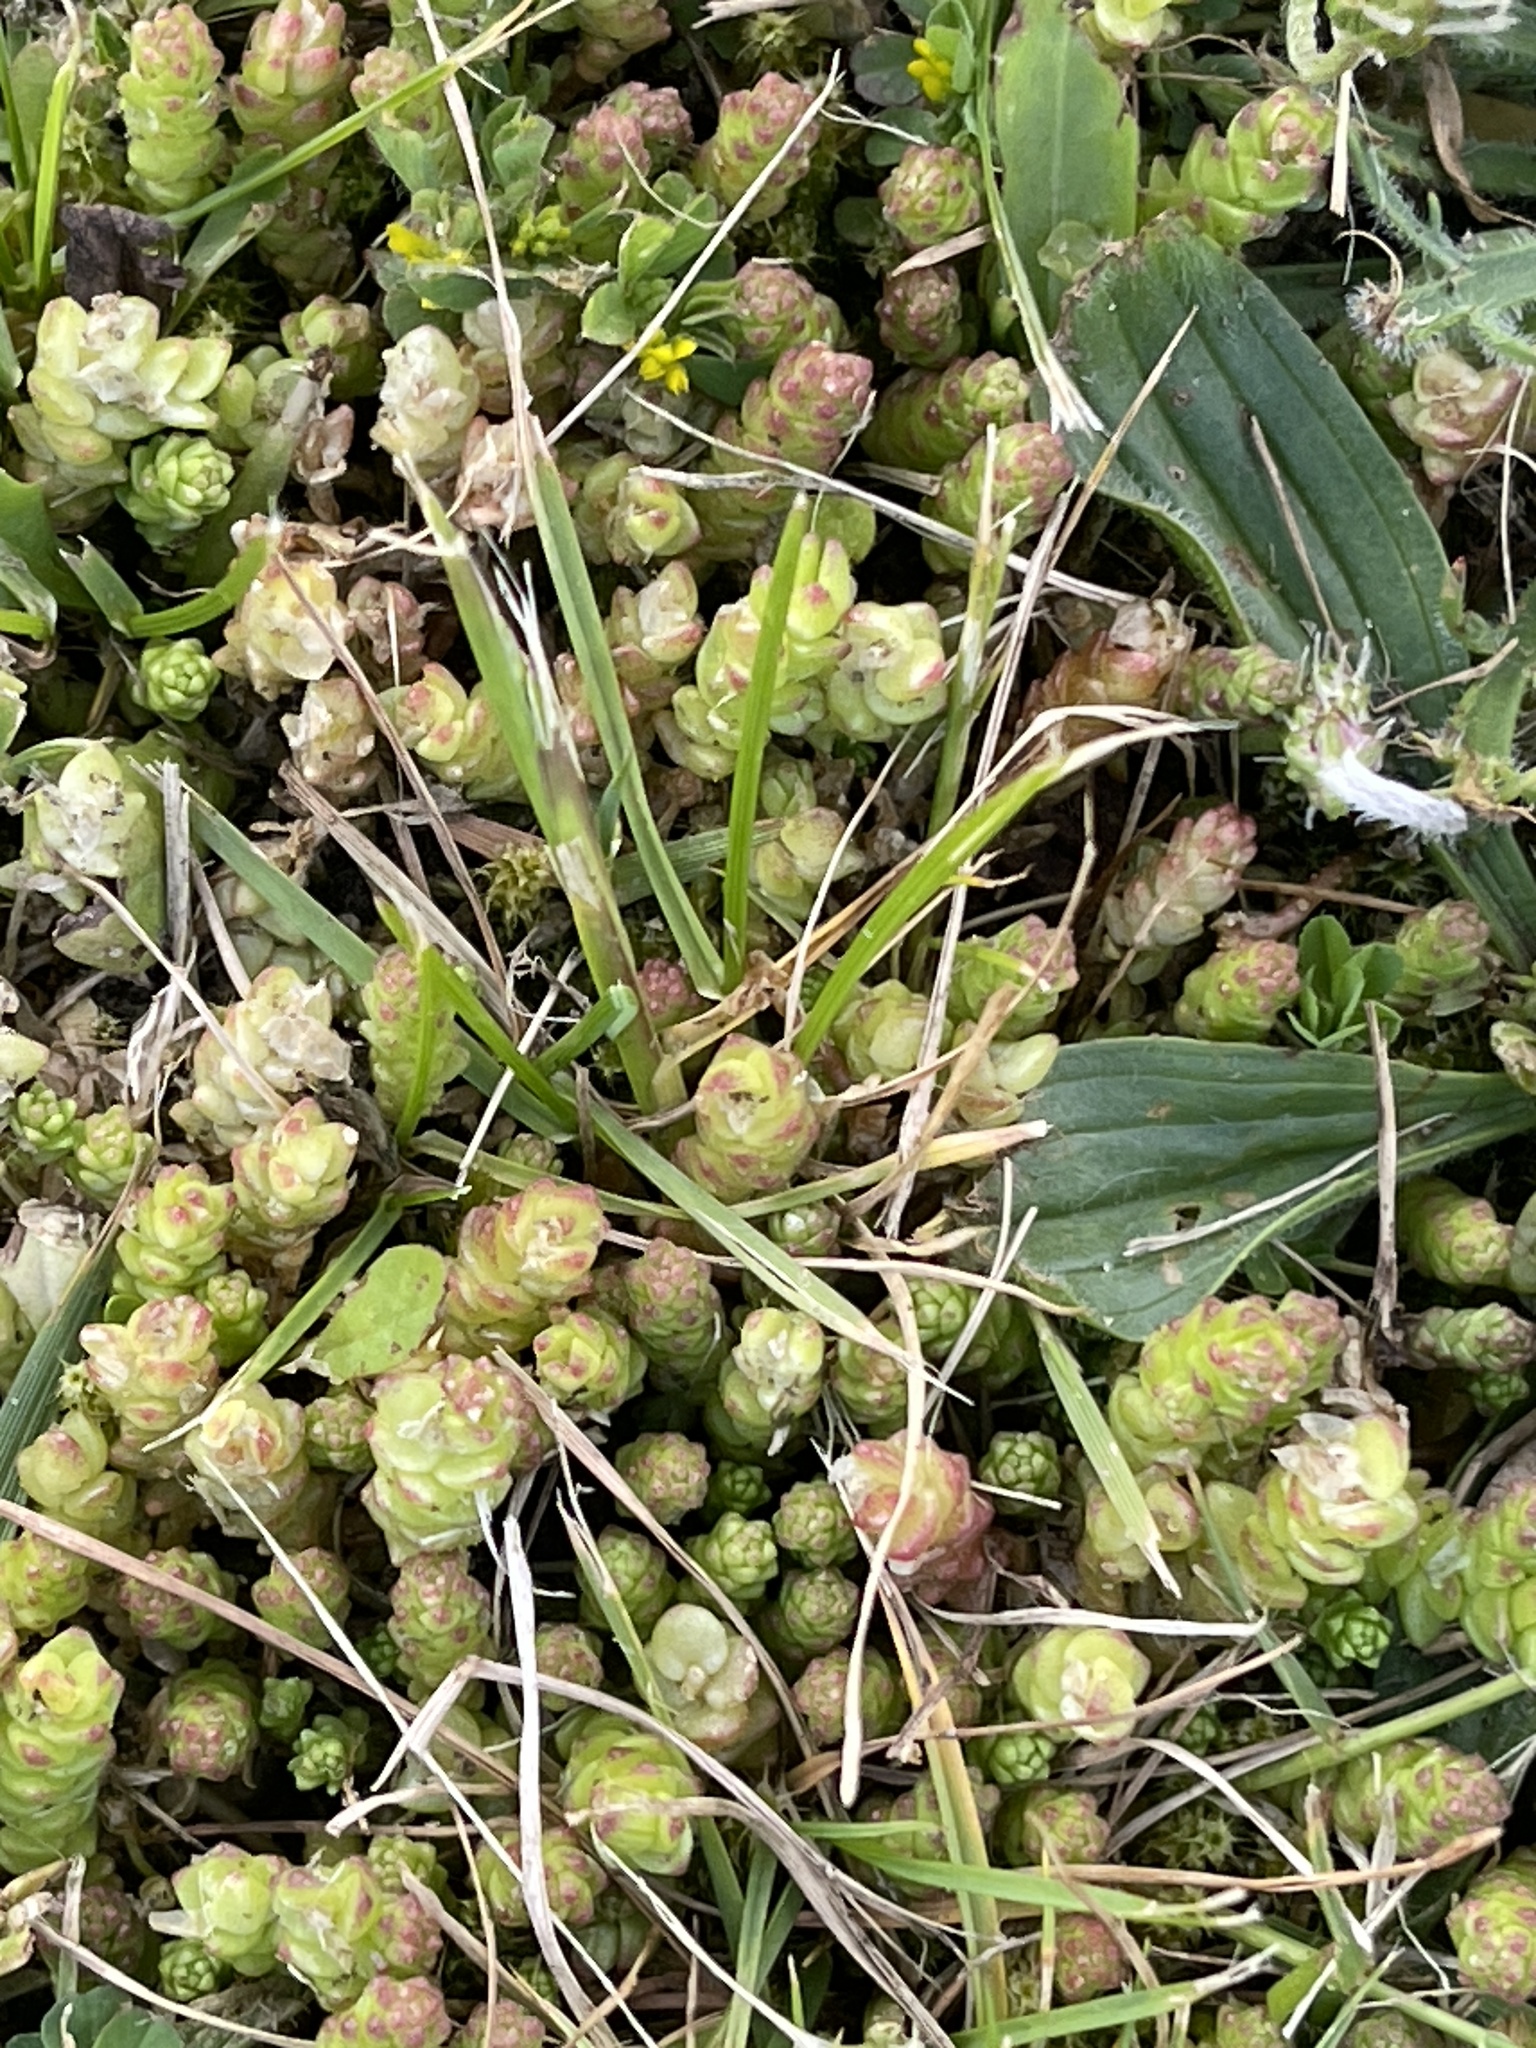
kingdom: Plantae
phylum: Tracheophyta
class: Magnoliopsida
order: Saxifragales
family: Crassulaceae
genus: Sedum
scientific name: Sedum acre
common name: Biting stonecrop
